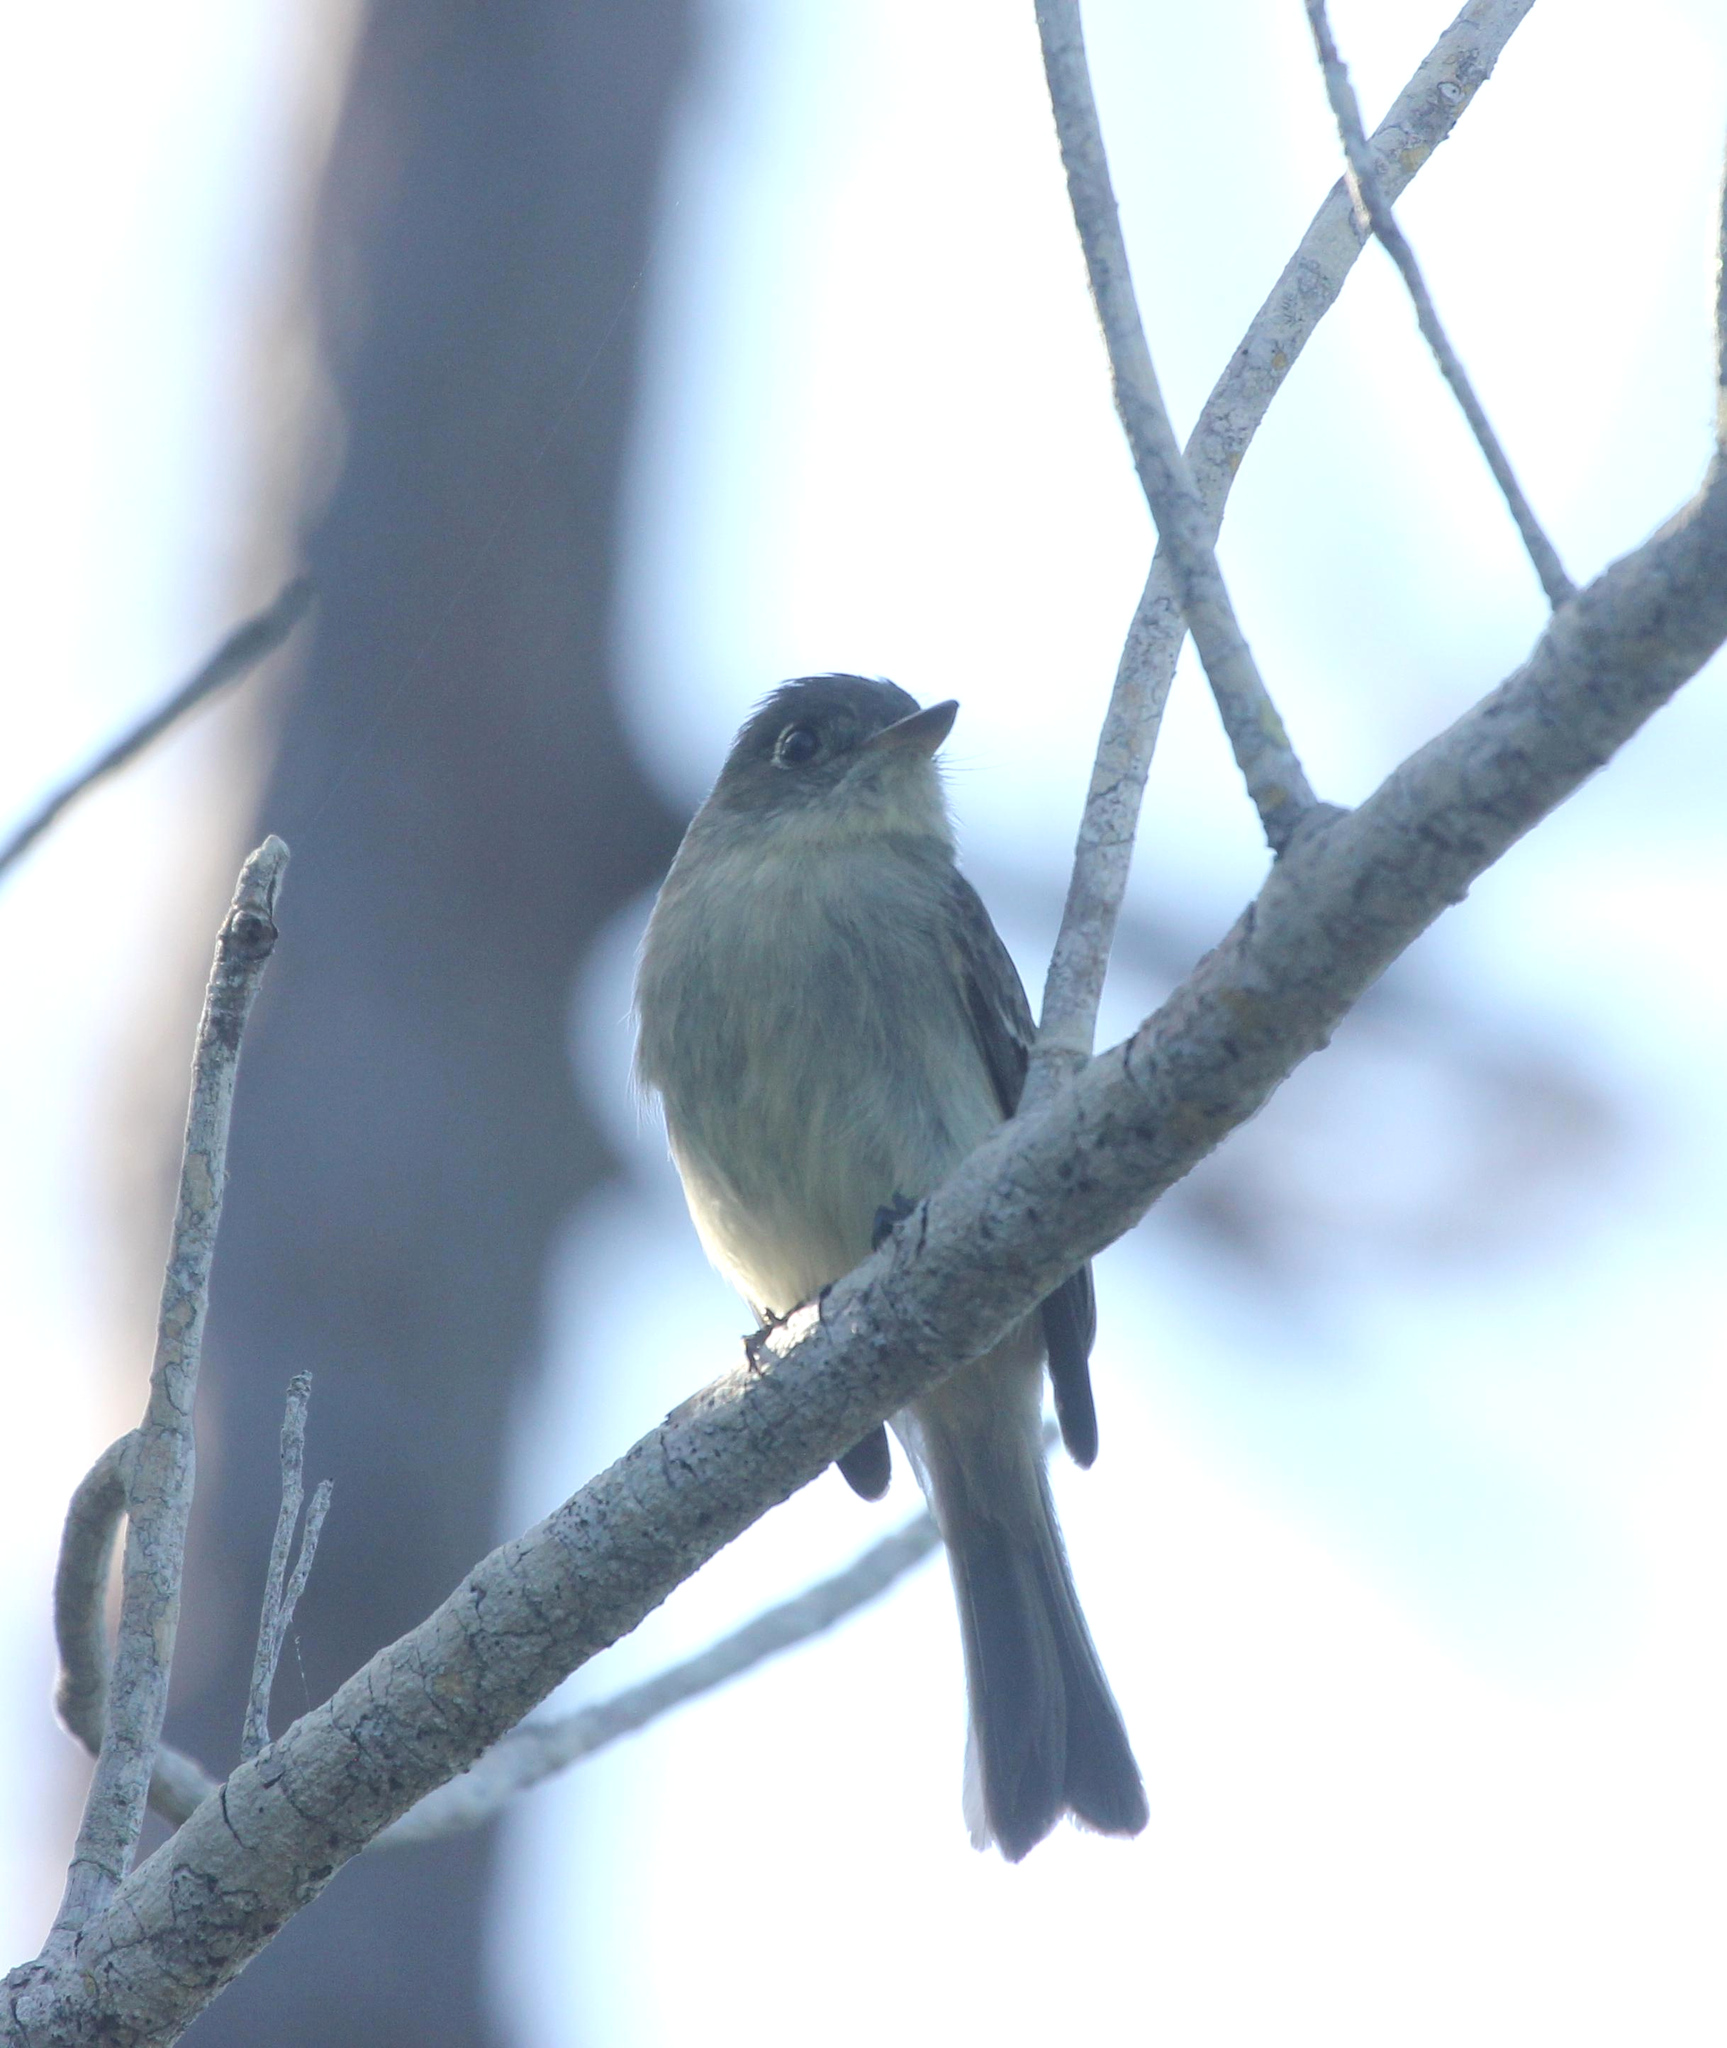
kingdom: Animalia
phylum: Chordata
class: Aves
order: Passeriformes
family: Tyrannidae
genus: Contopus
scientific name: Contopus caribaeus
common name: Cuban pewee
